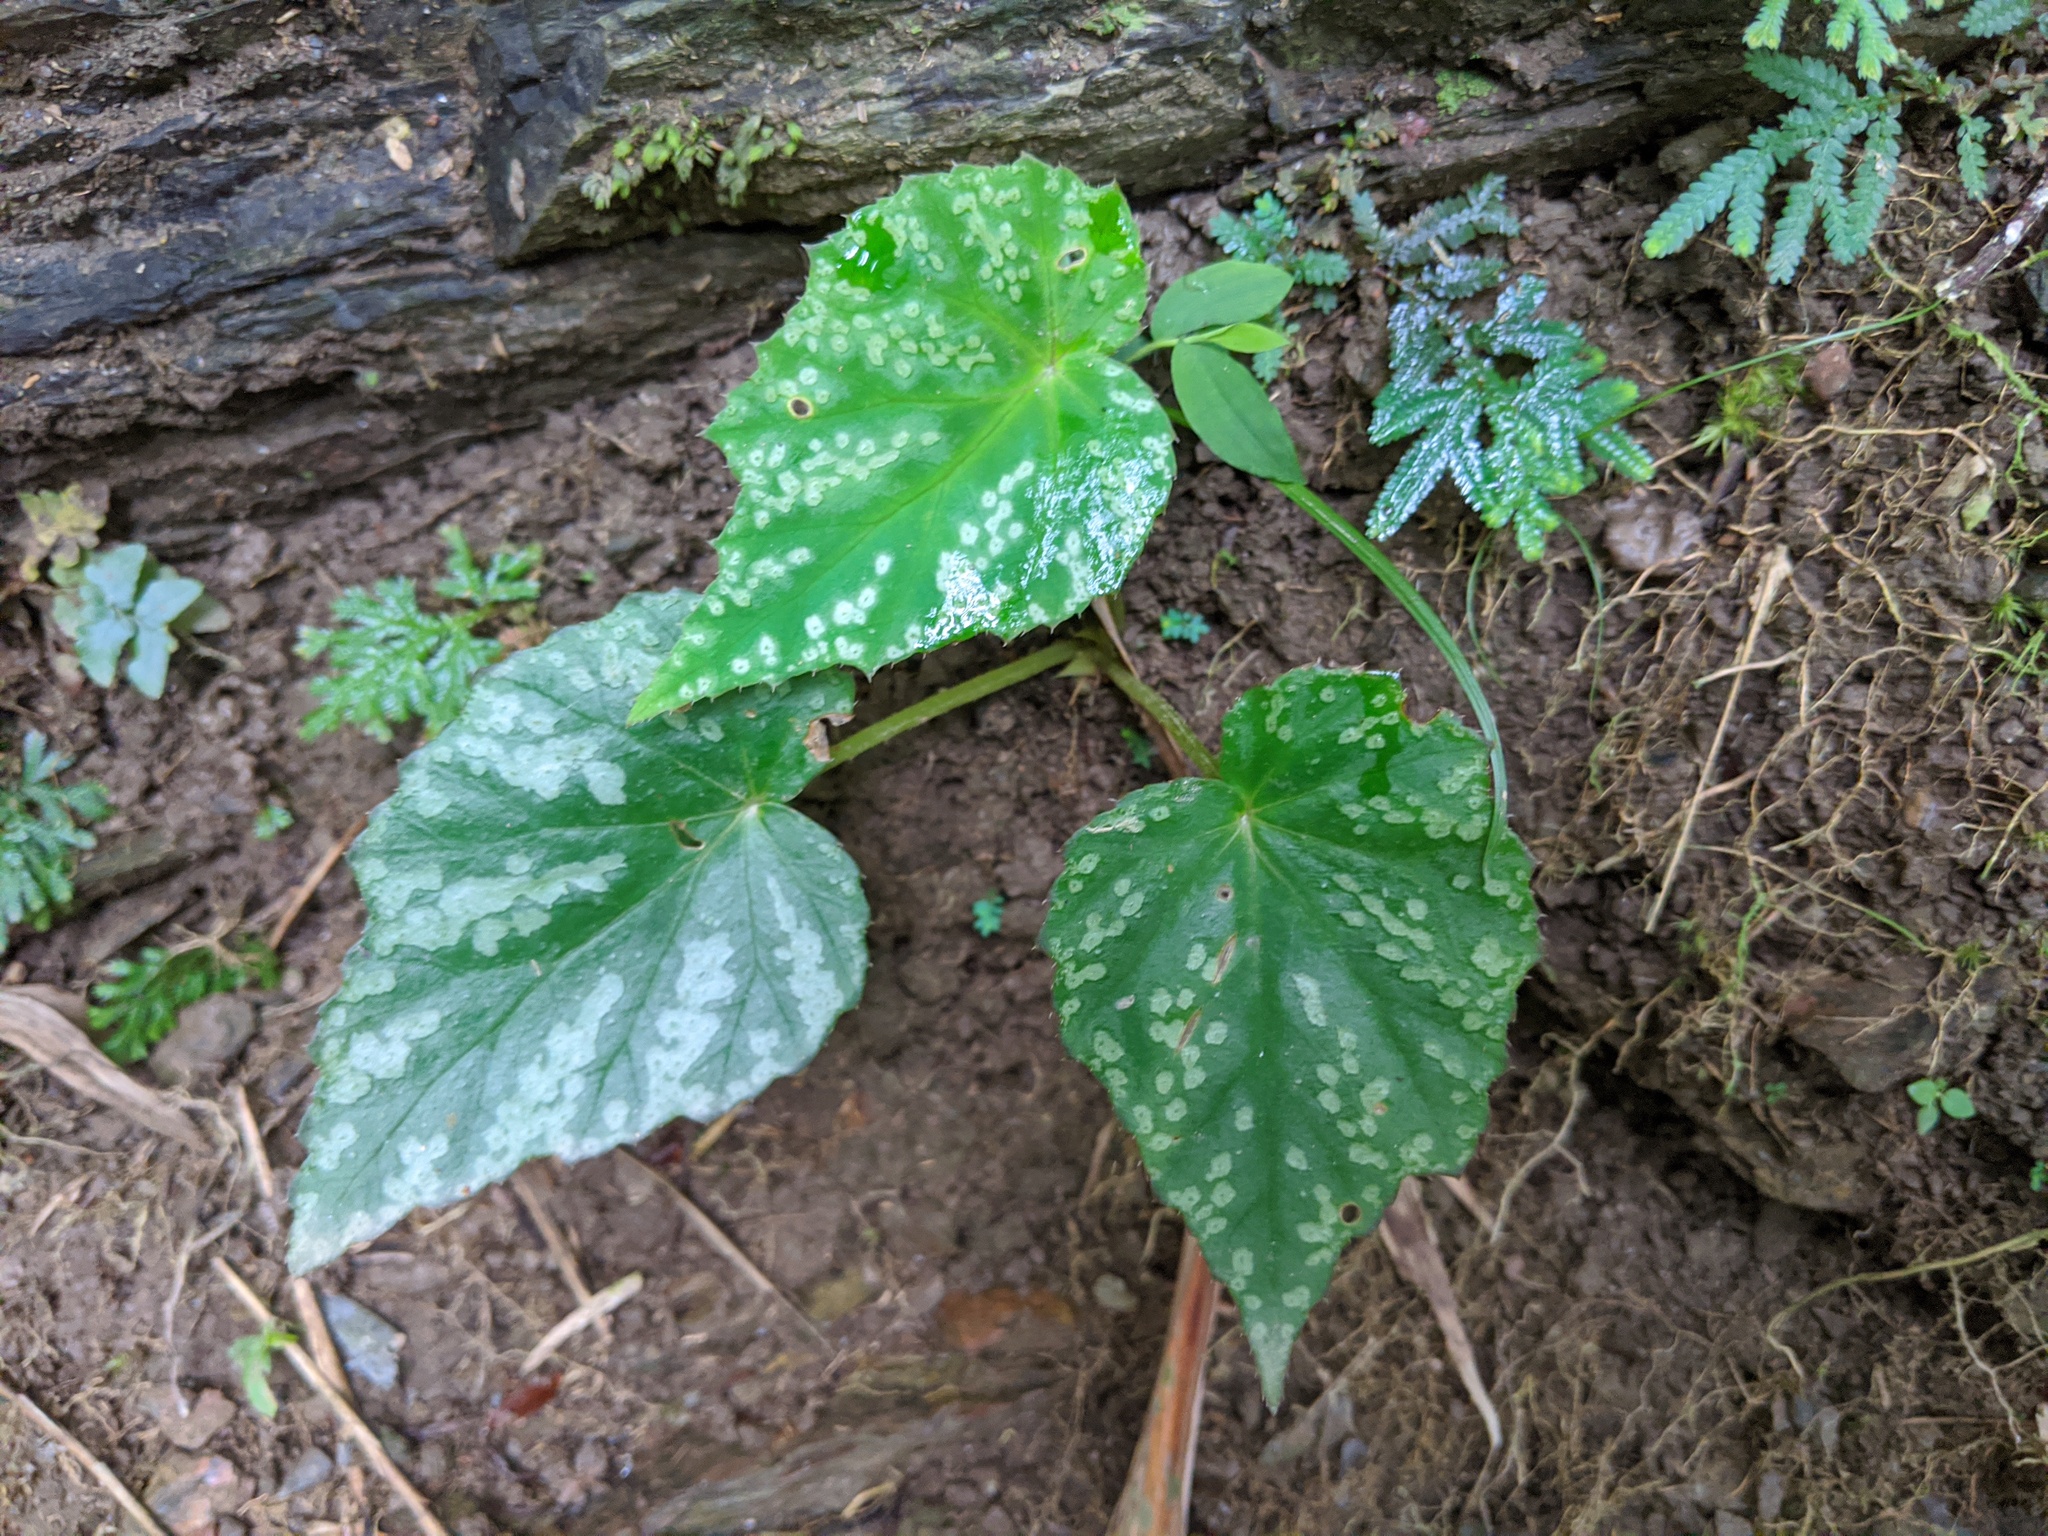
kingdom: Plantae
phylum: Tracheophyta
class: Magnoliopsida
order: Cucurbitales
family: Begoniaceae
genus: Begonia
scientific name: Begonia austrotaiwanensis
